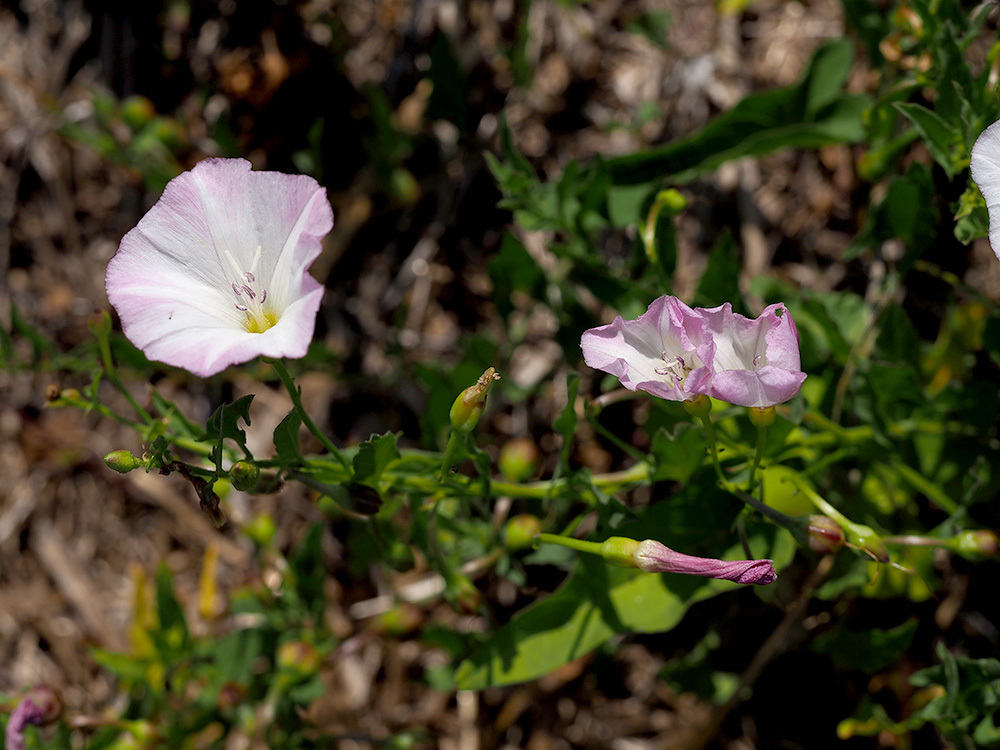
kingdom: Plantae
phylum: Tracheophyta
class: Magnoliopsida
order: Solanales
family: Convolvulaceae
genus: Convolvulus
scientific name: Convolvulus arvensis
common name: Field bindweed
